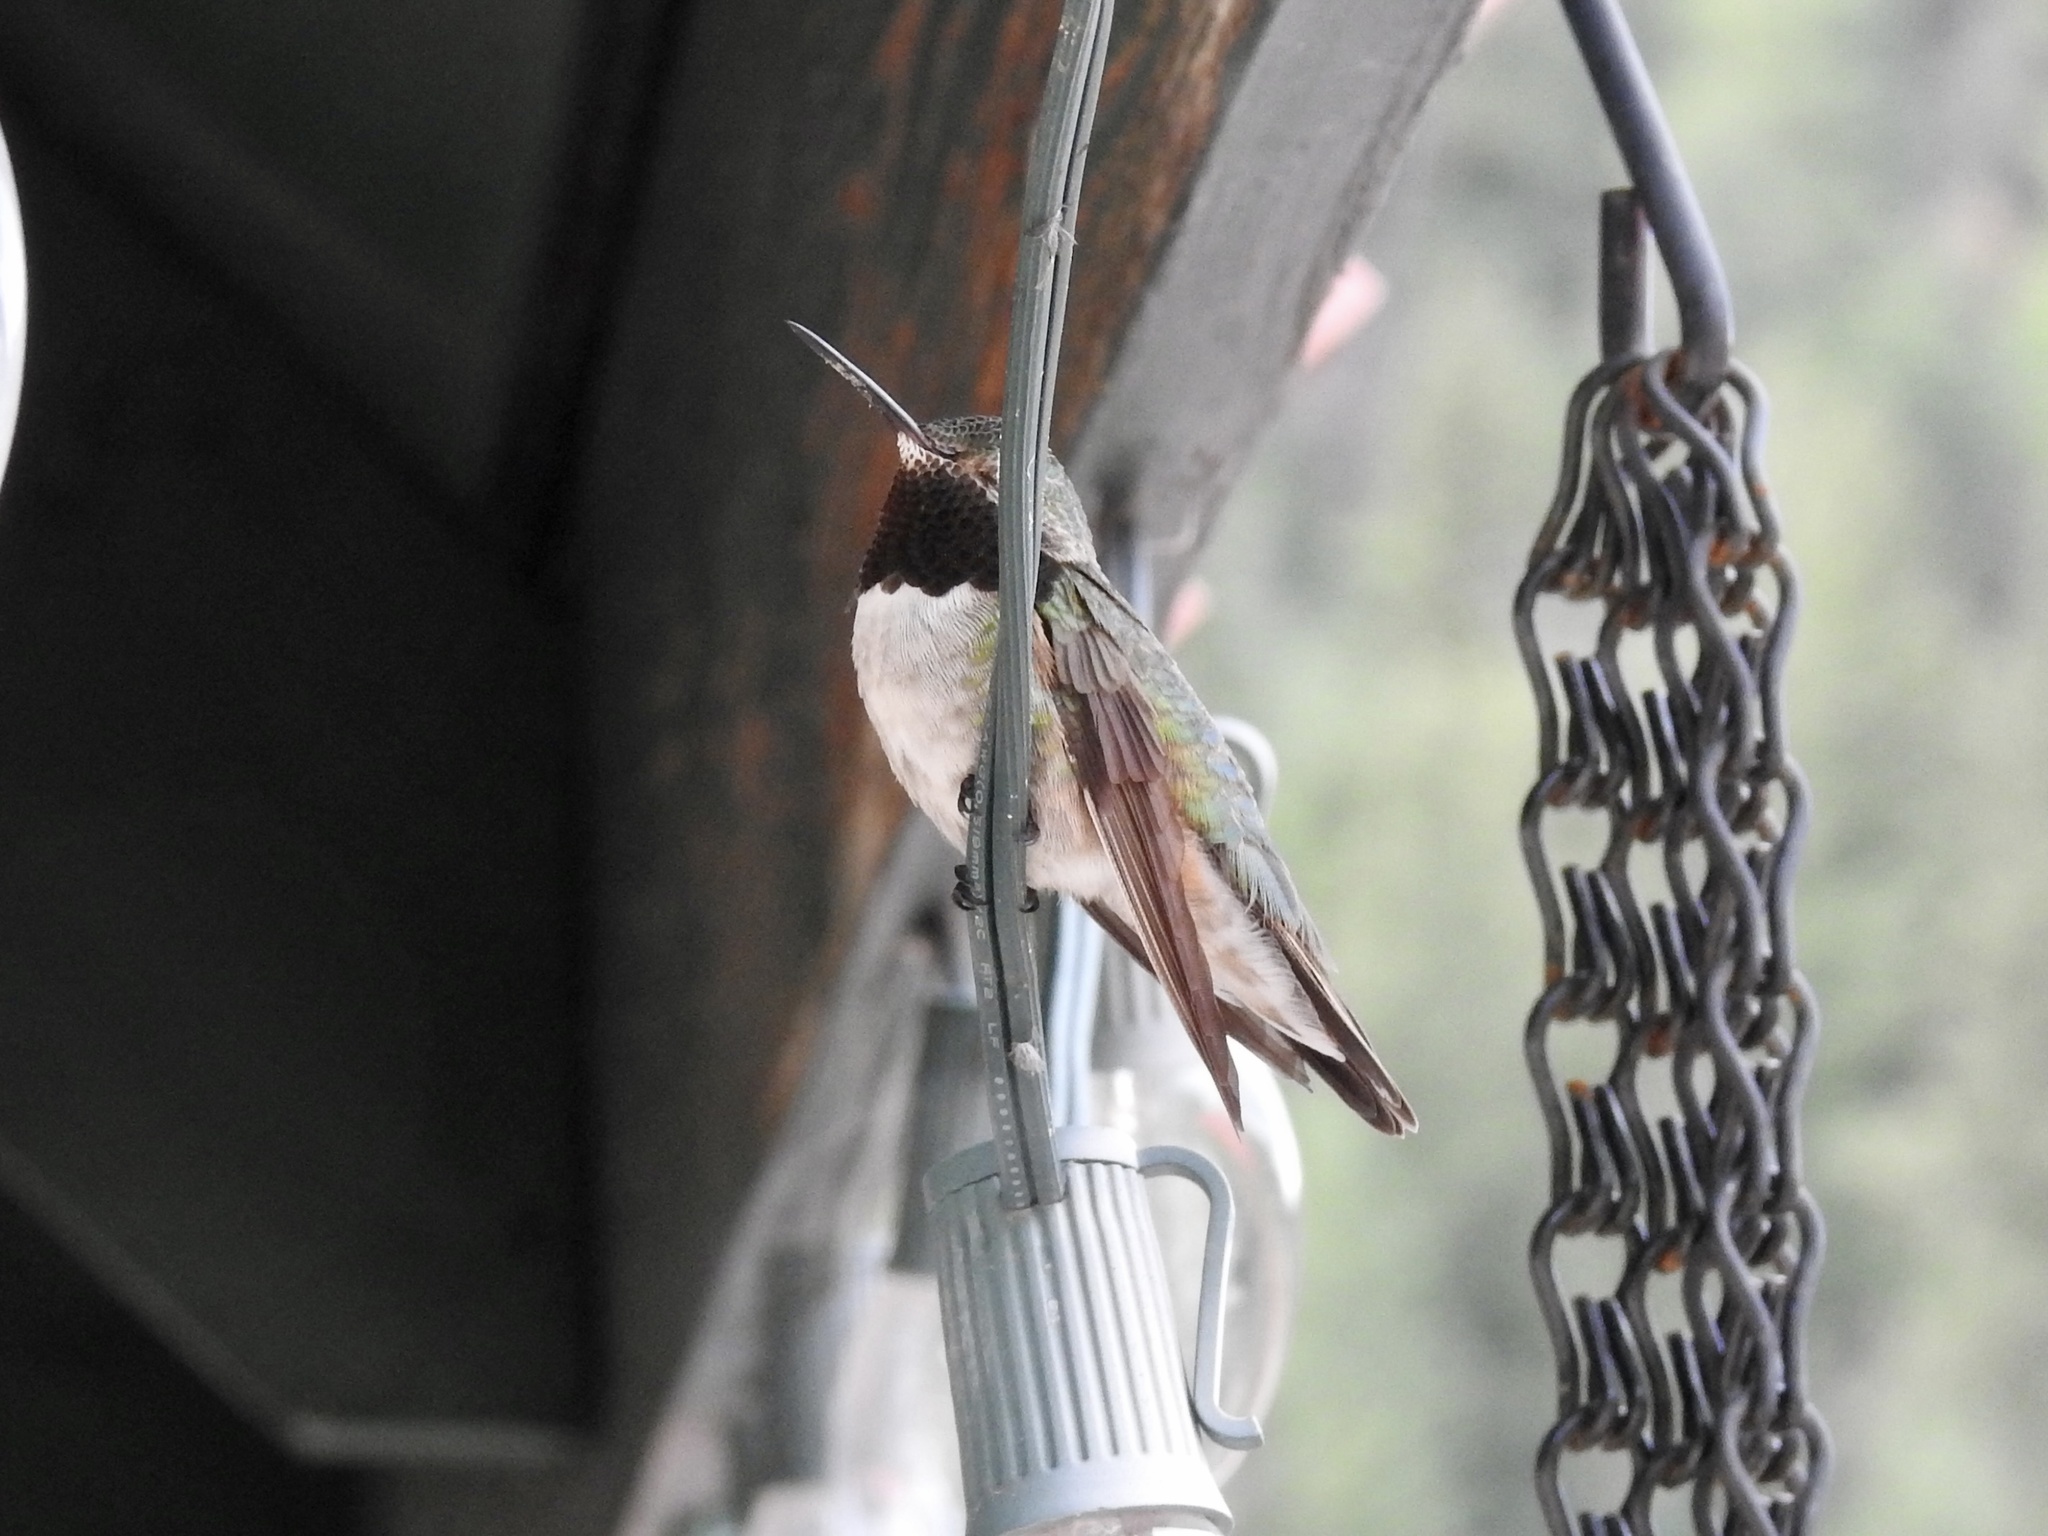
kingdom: Animalia
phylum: Chordata
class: Aves
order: Apodiformes
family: Trochilidae
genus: Selasphorus
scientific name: Selasphorus platycercus
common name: Broad-tailed hummingbird
